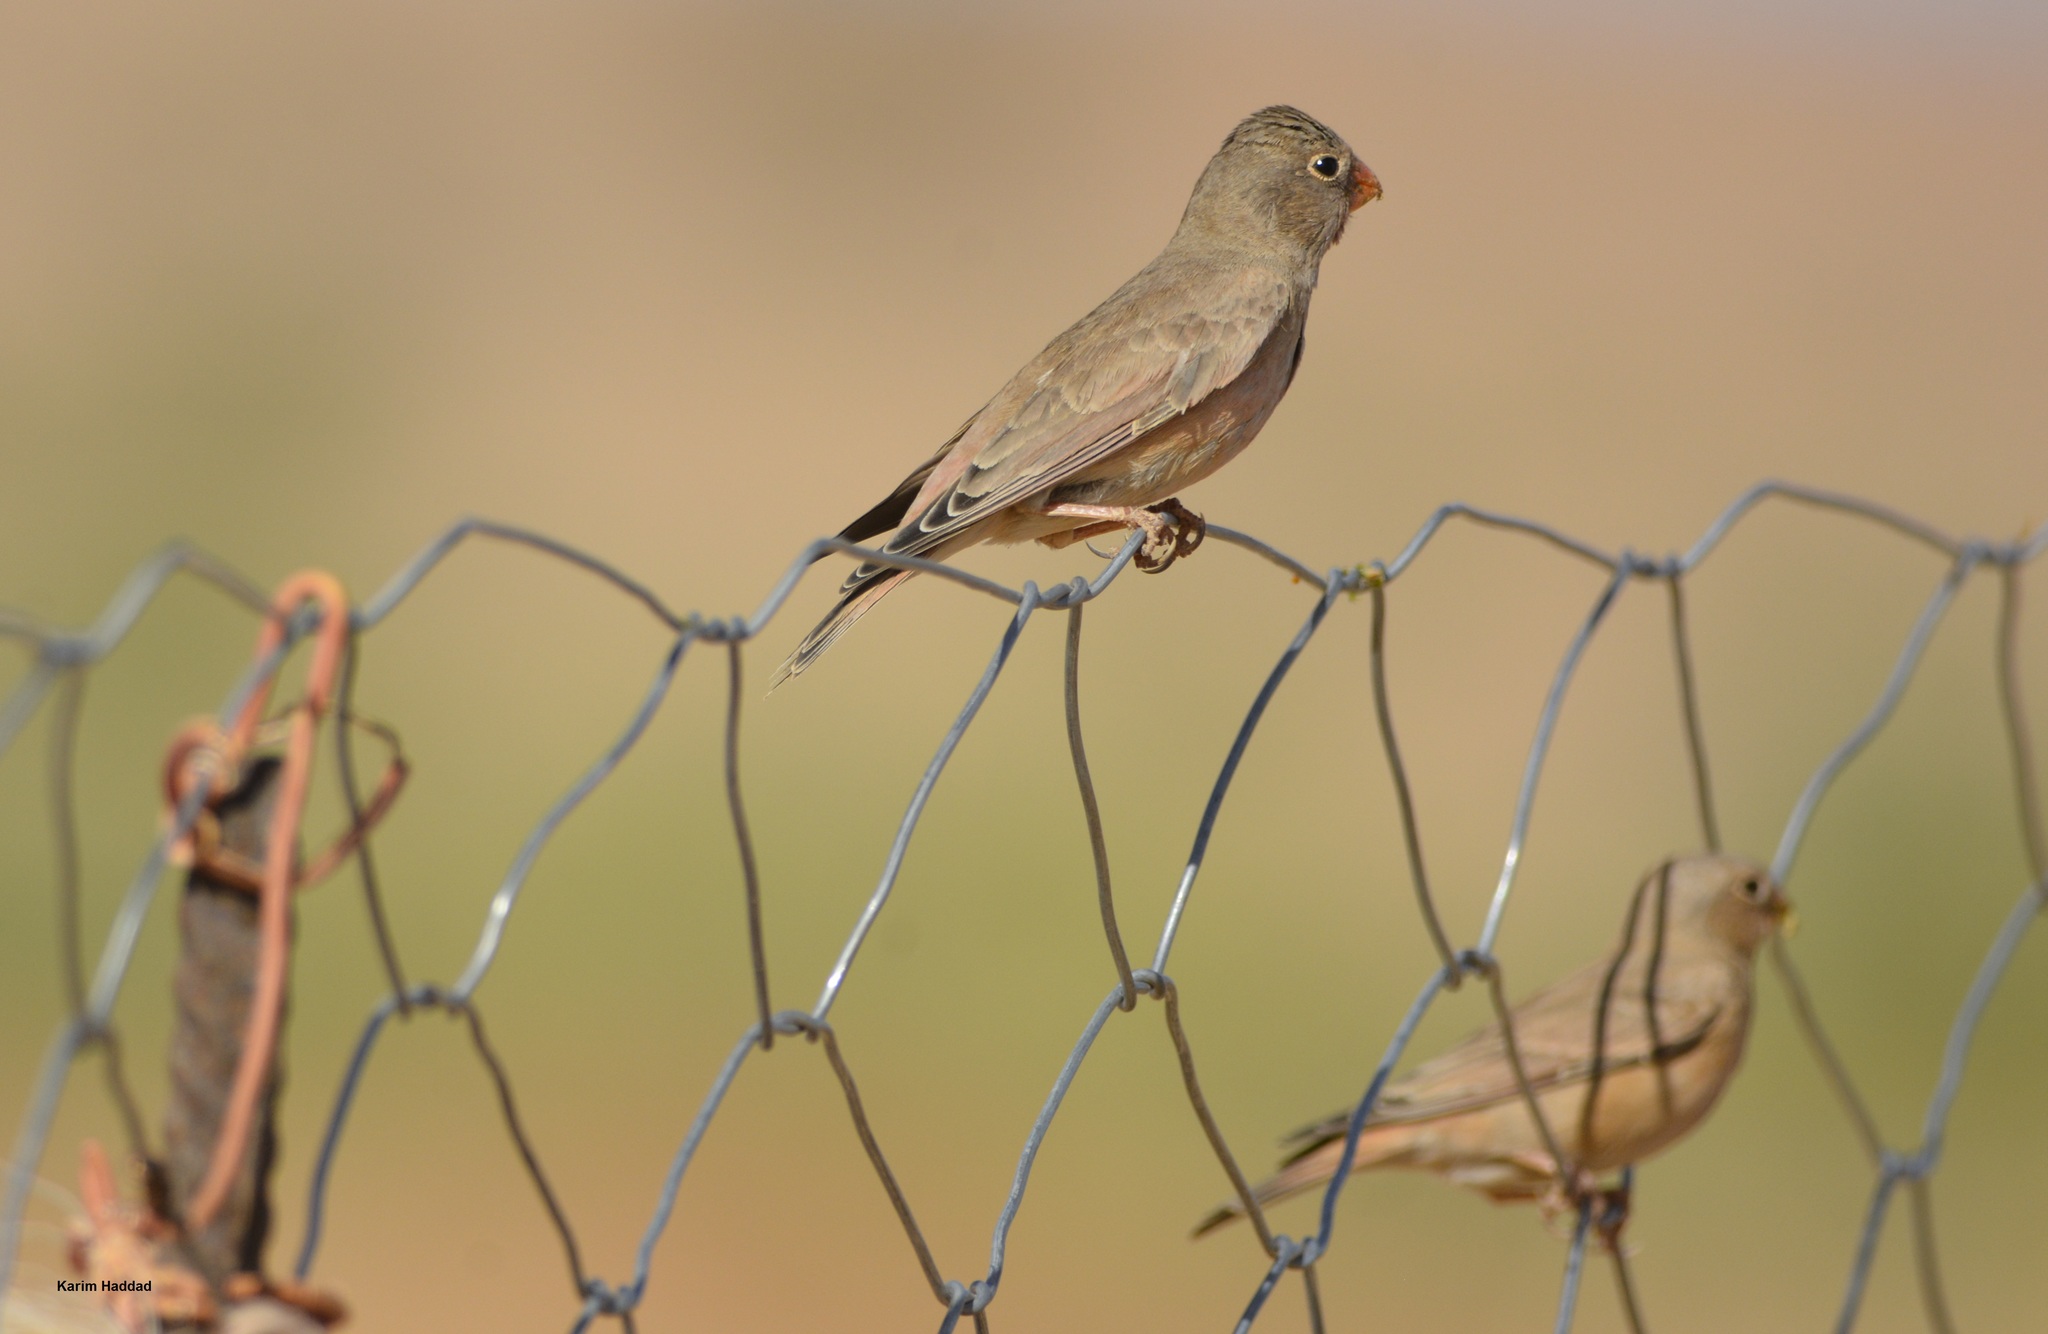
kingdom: Animalia
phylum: Chordata
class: Aves
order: Passeriformes
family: Fringillidae
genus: Bucanetes
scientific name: Bucanetes githagineus
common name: Trumpeter finch
